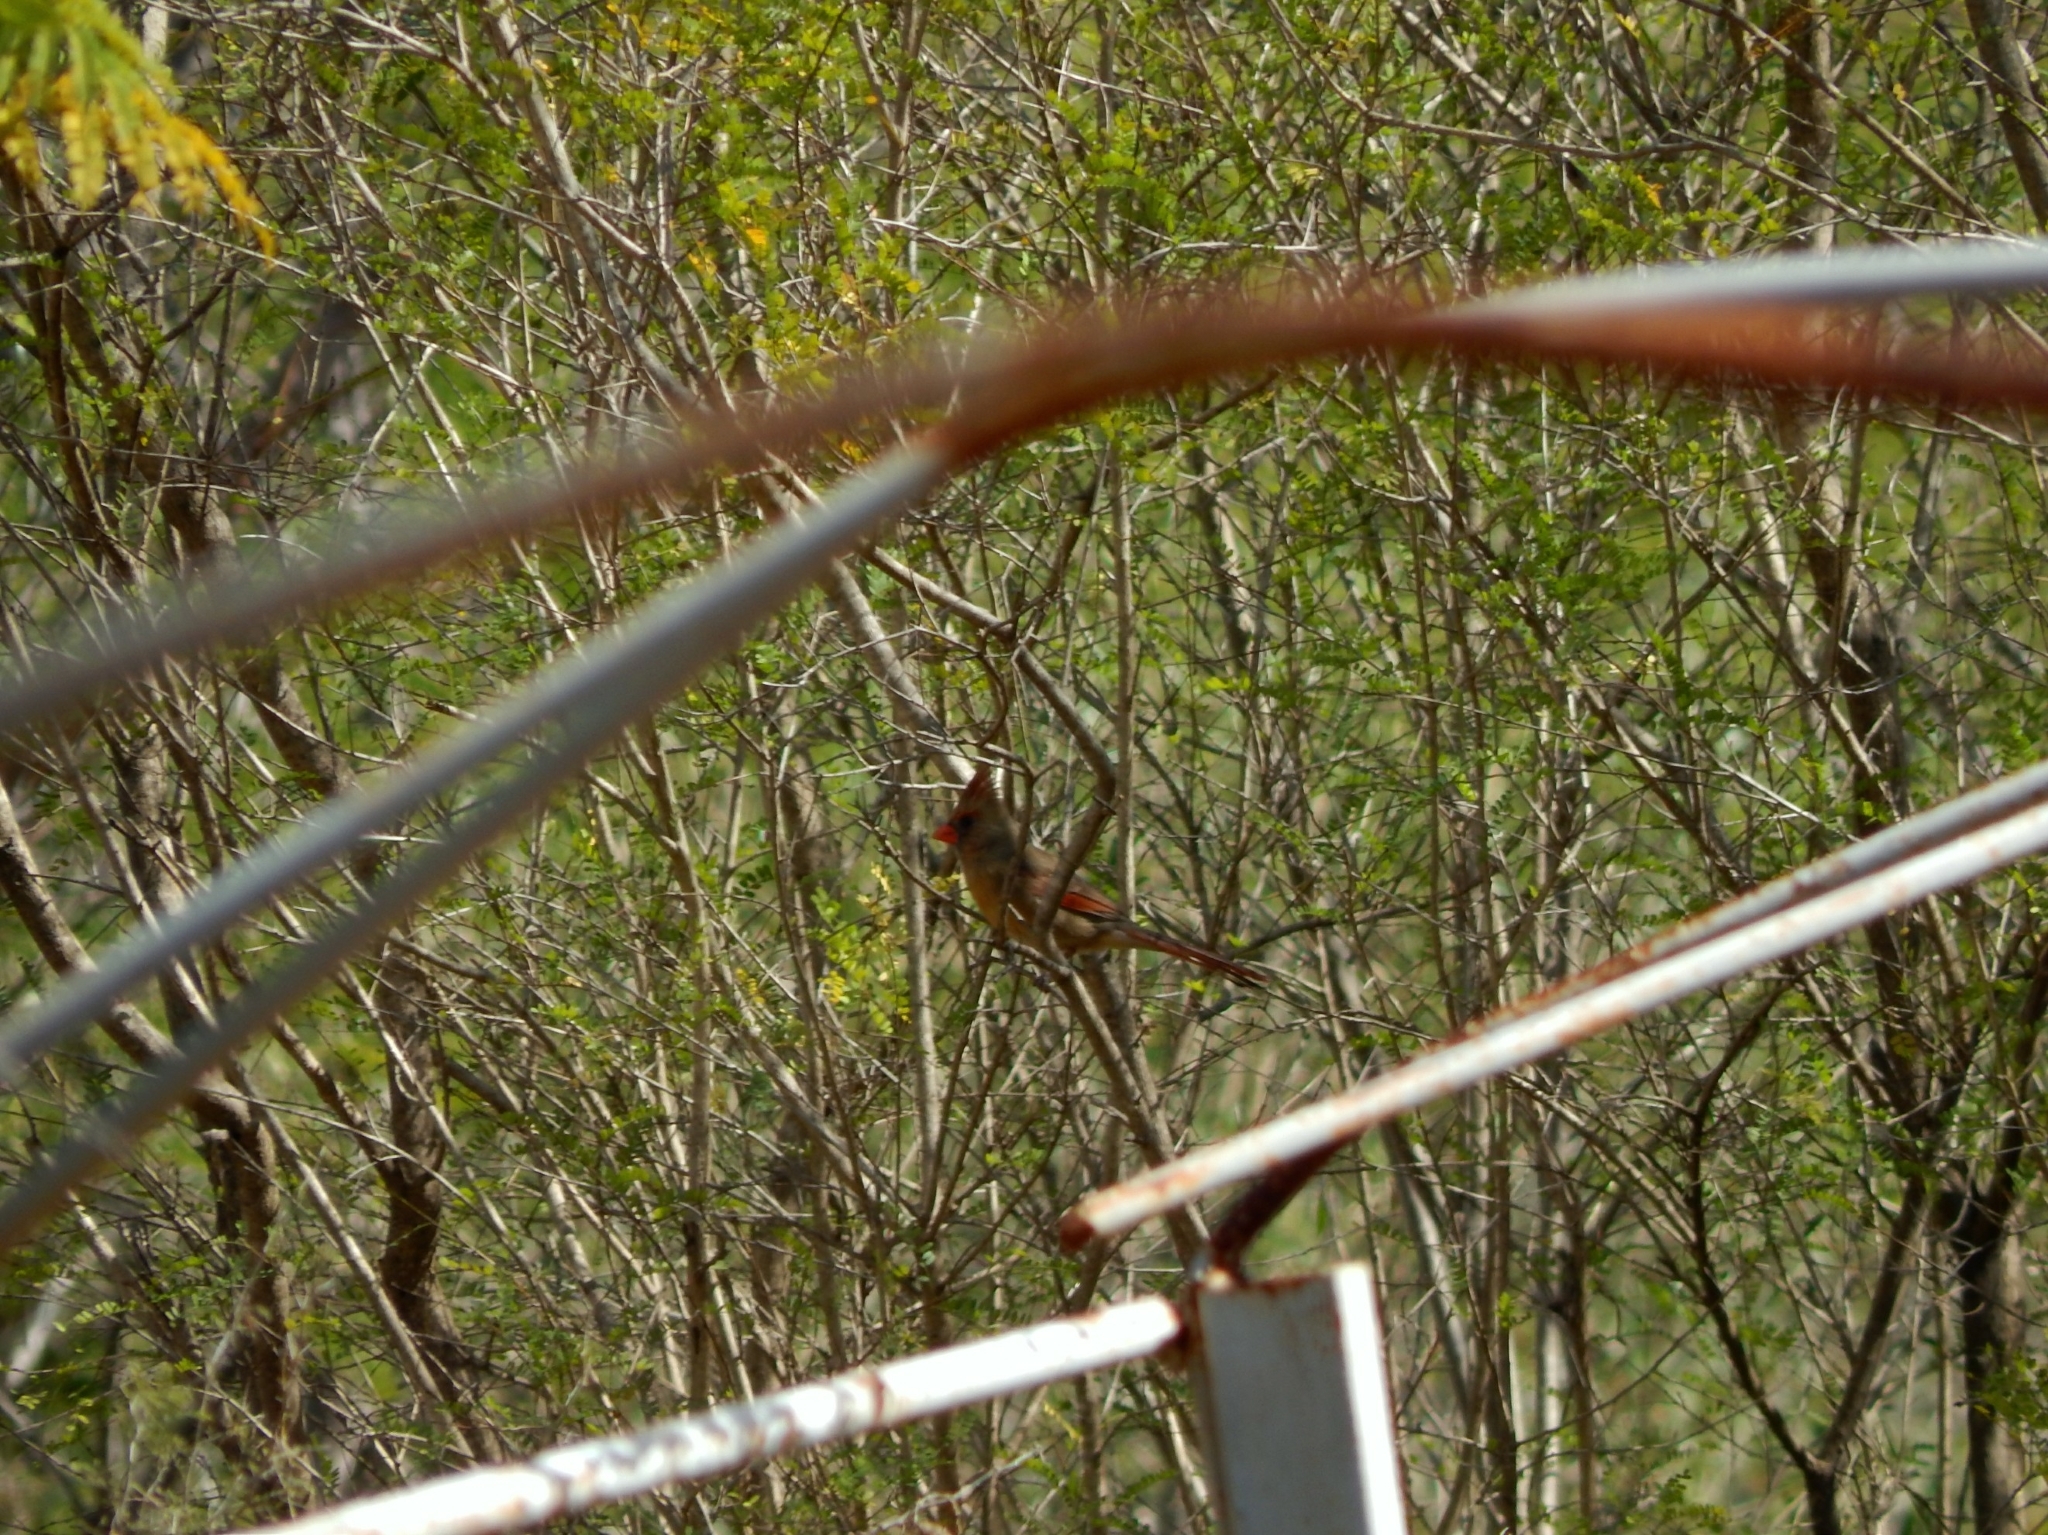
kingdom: Animalia
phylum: Chordata
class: Aves
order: Passeriformes
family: Cardinalidae
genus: Cardinalis
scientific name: Cardinalis cardinalis
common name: Northern cardinal
